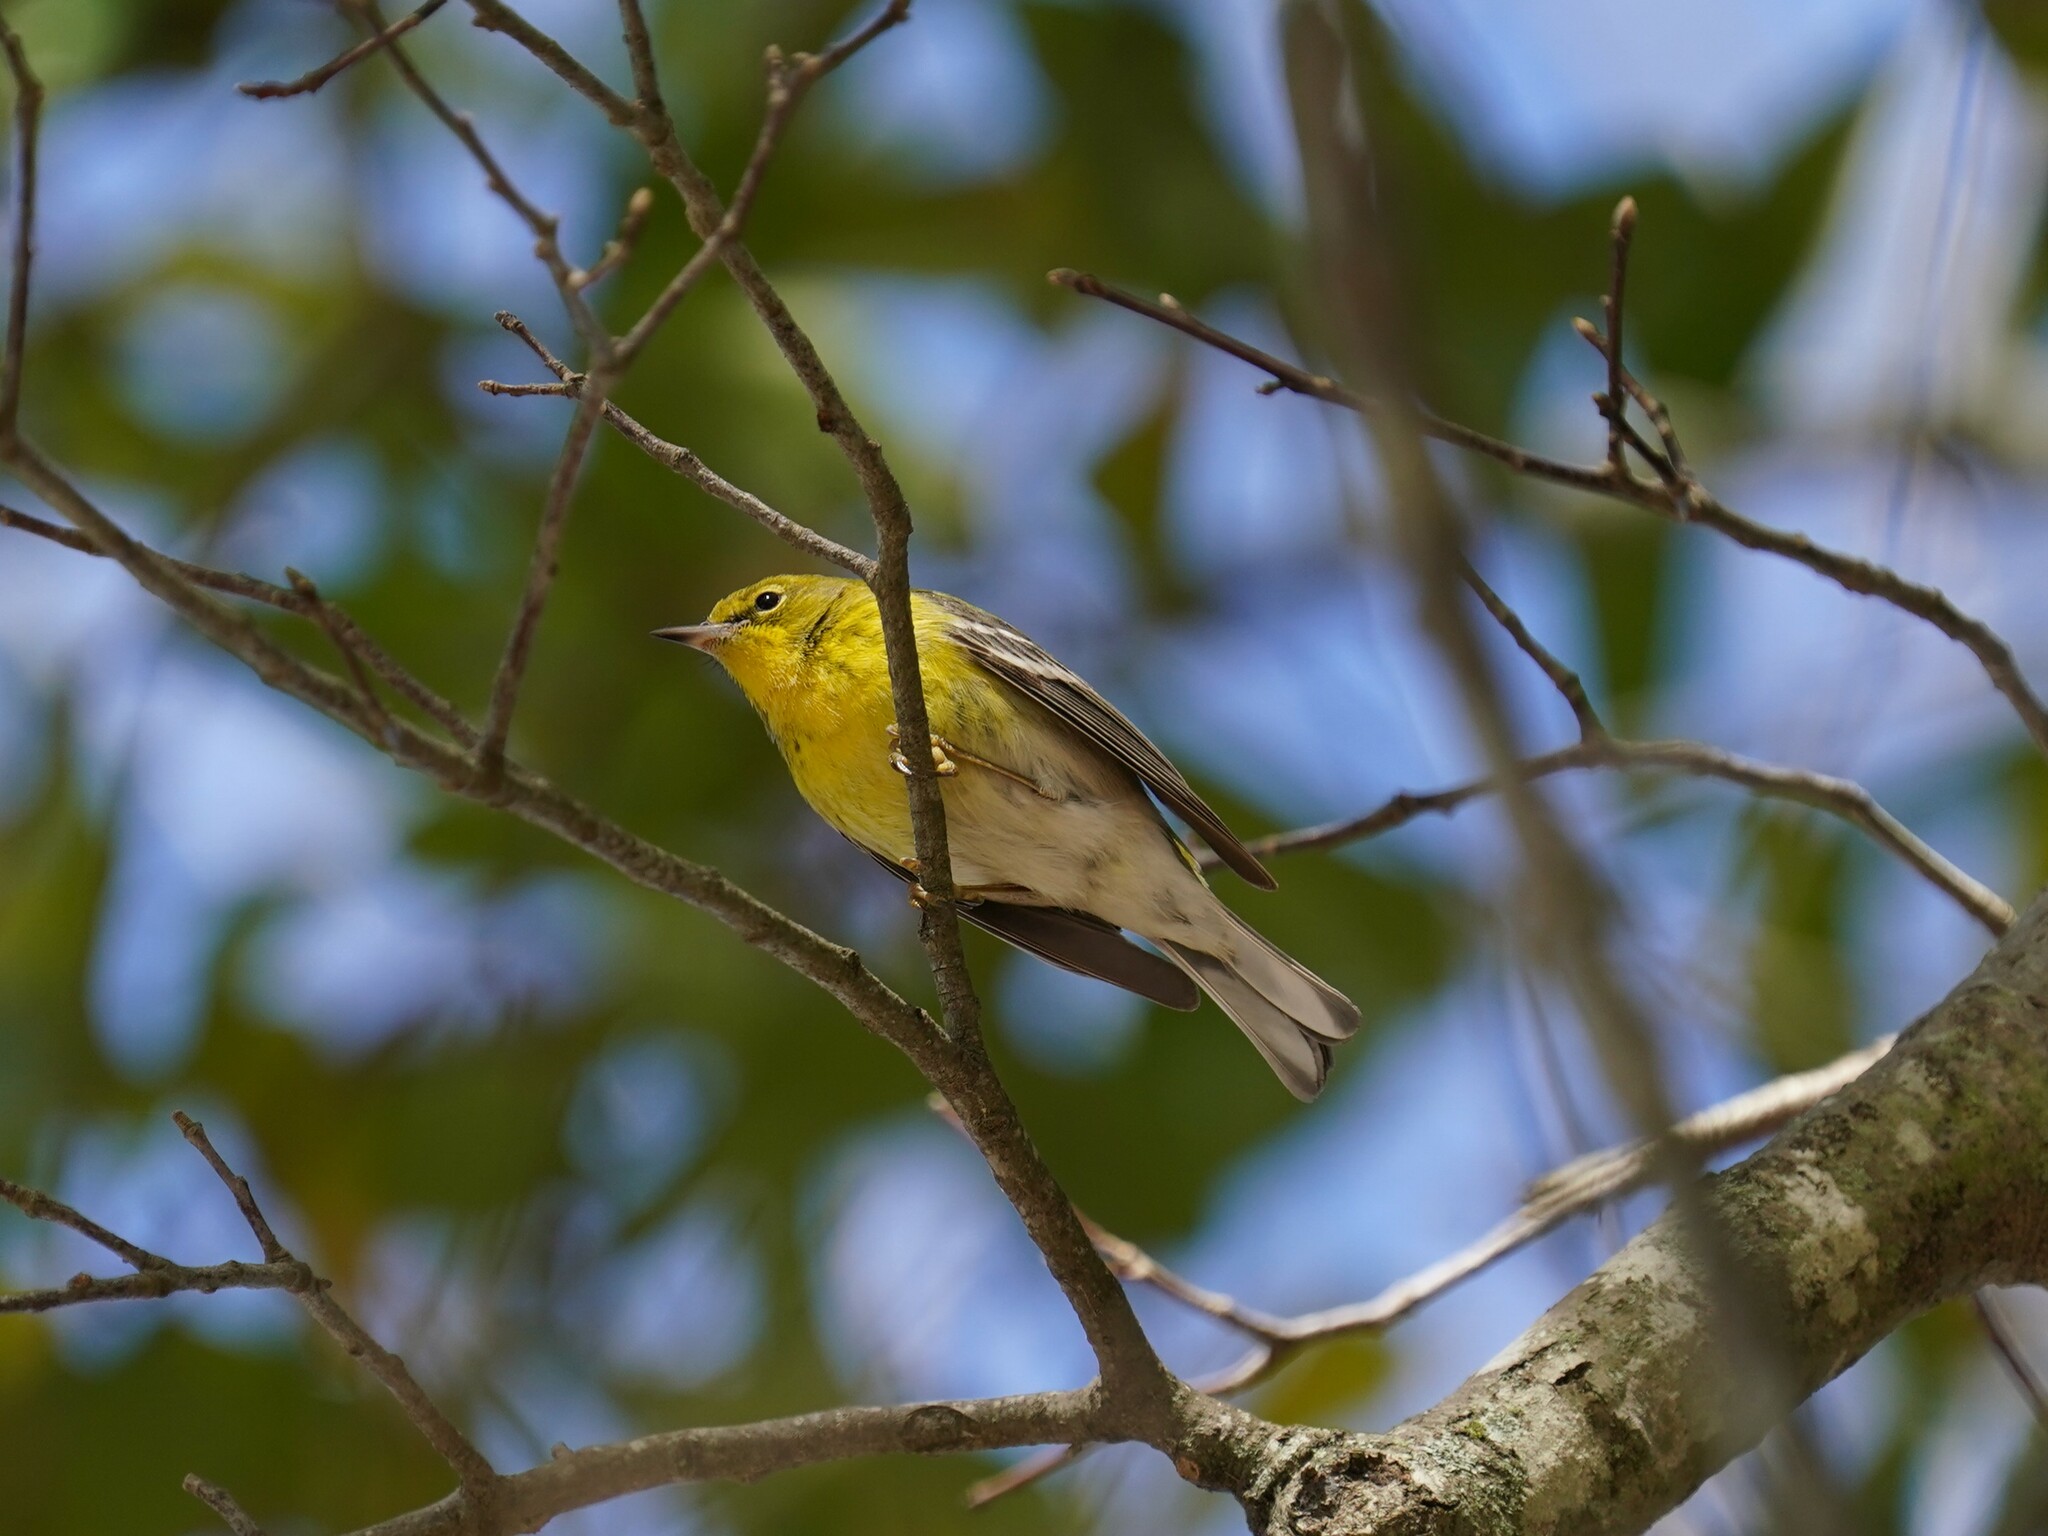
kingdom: Animalia
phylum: Chordata
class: Aves
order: Passeriformes
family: Parulidae
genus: Setophaga
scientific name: Setophaga pinus
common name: Pine warbler
